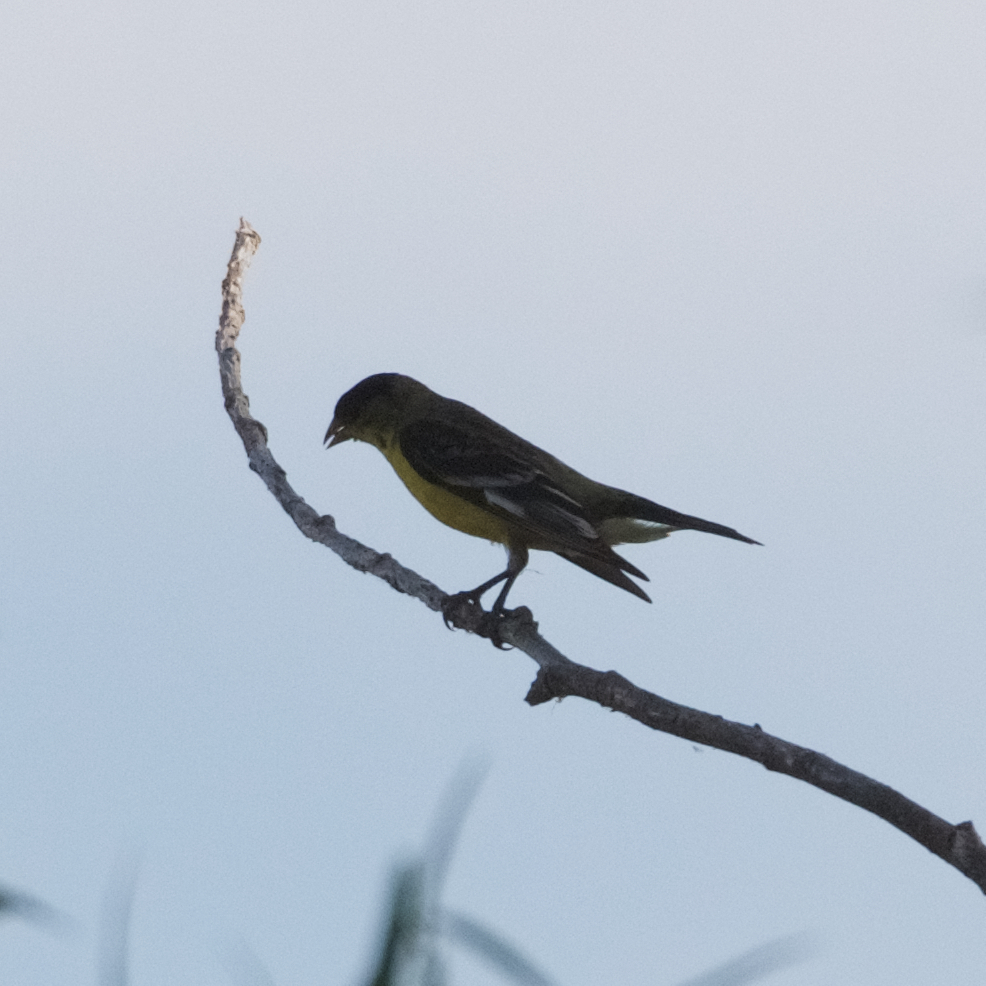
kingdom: Animalia
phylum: Chordata
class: Aves
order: Passeriformes
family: Fringillidae
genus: Spinus
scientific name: Spinus psaltria
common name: Lesser goldfinch
